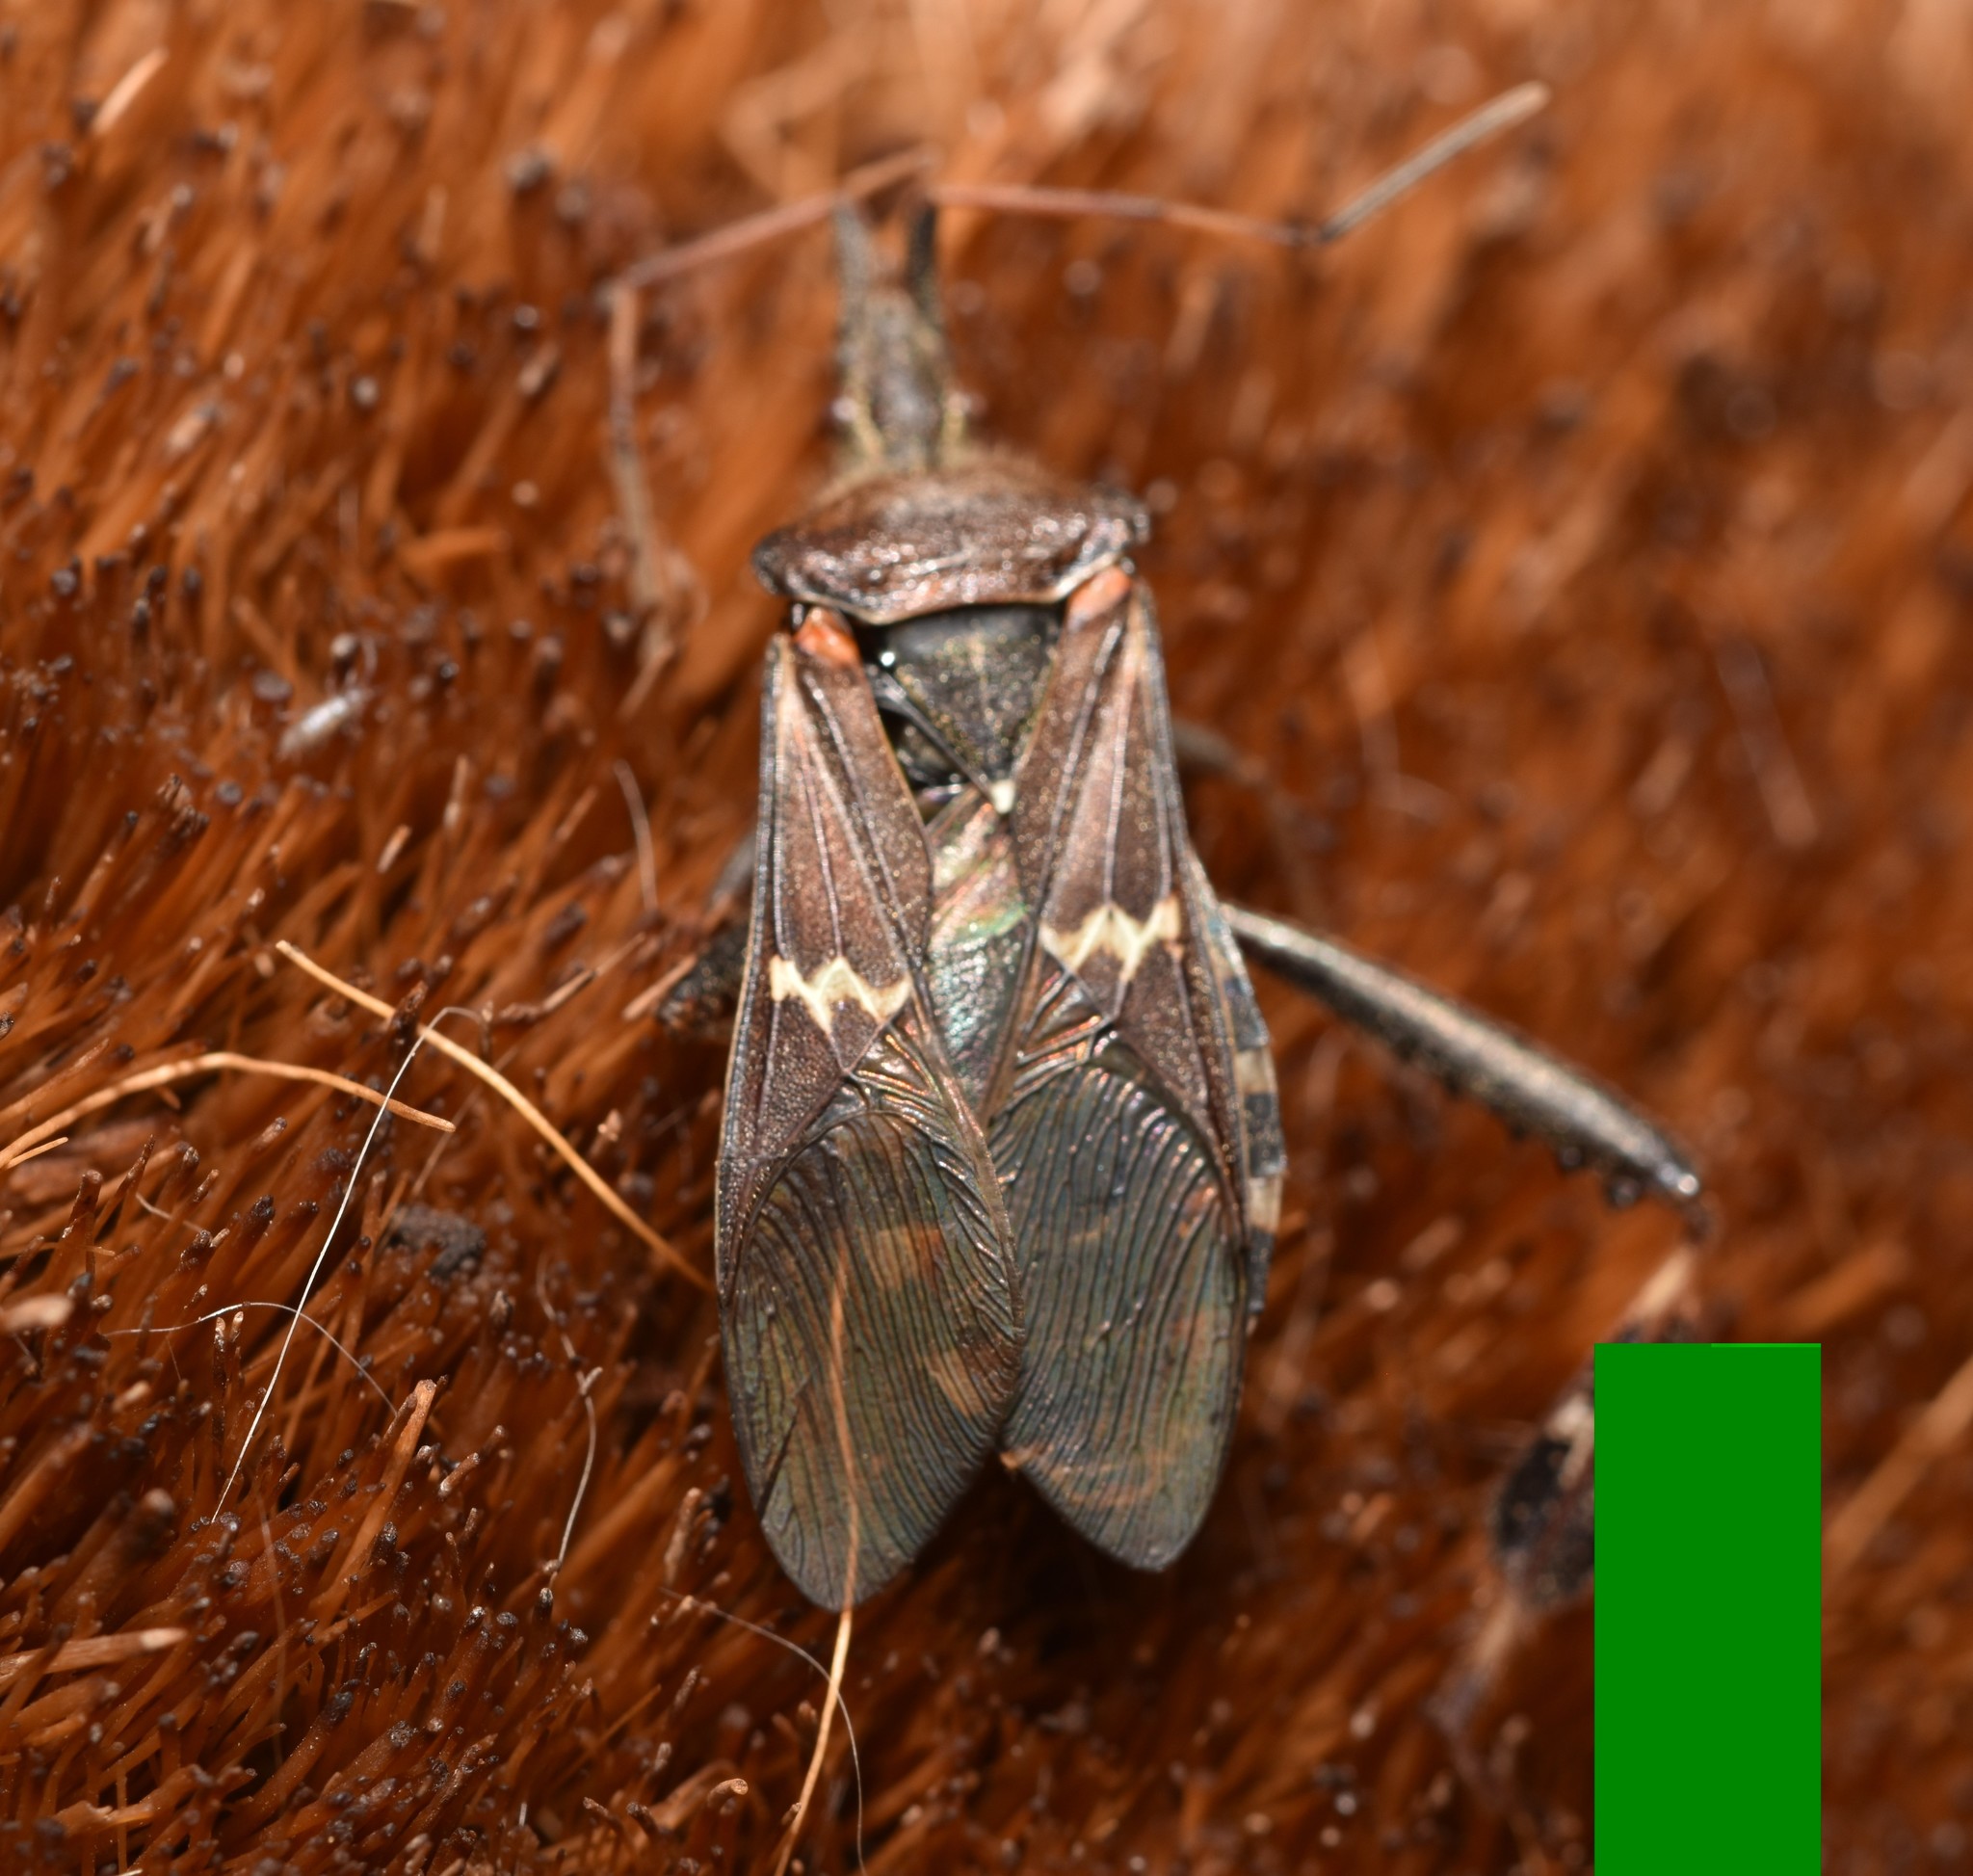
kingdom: Animalia
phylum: Arthropoda
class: Insecta
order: Hemiptera
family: Coreidae
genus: Leptoglossus
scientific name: Leptoglossus clypealis
